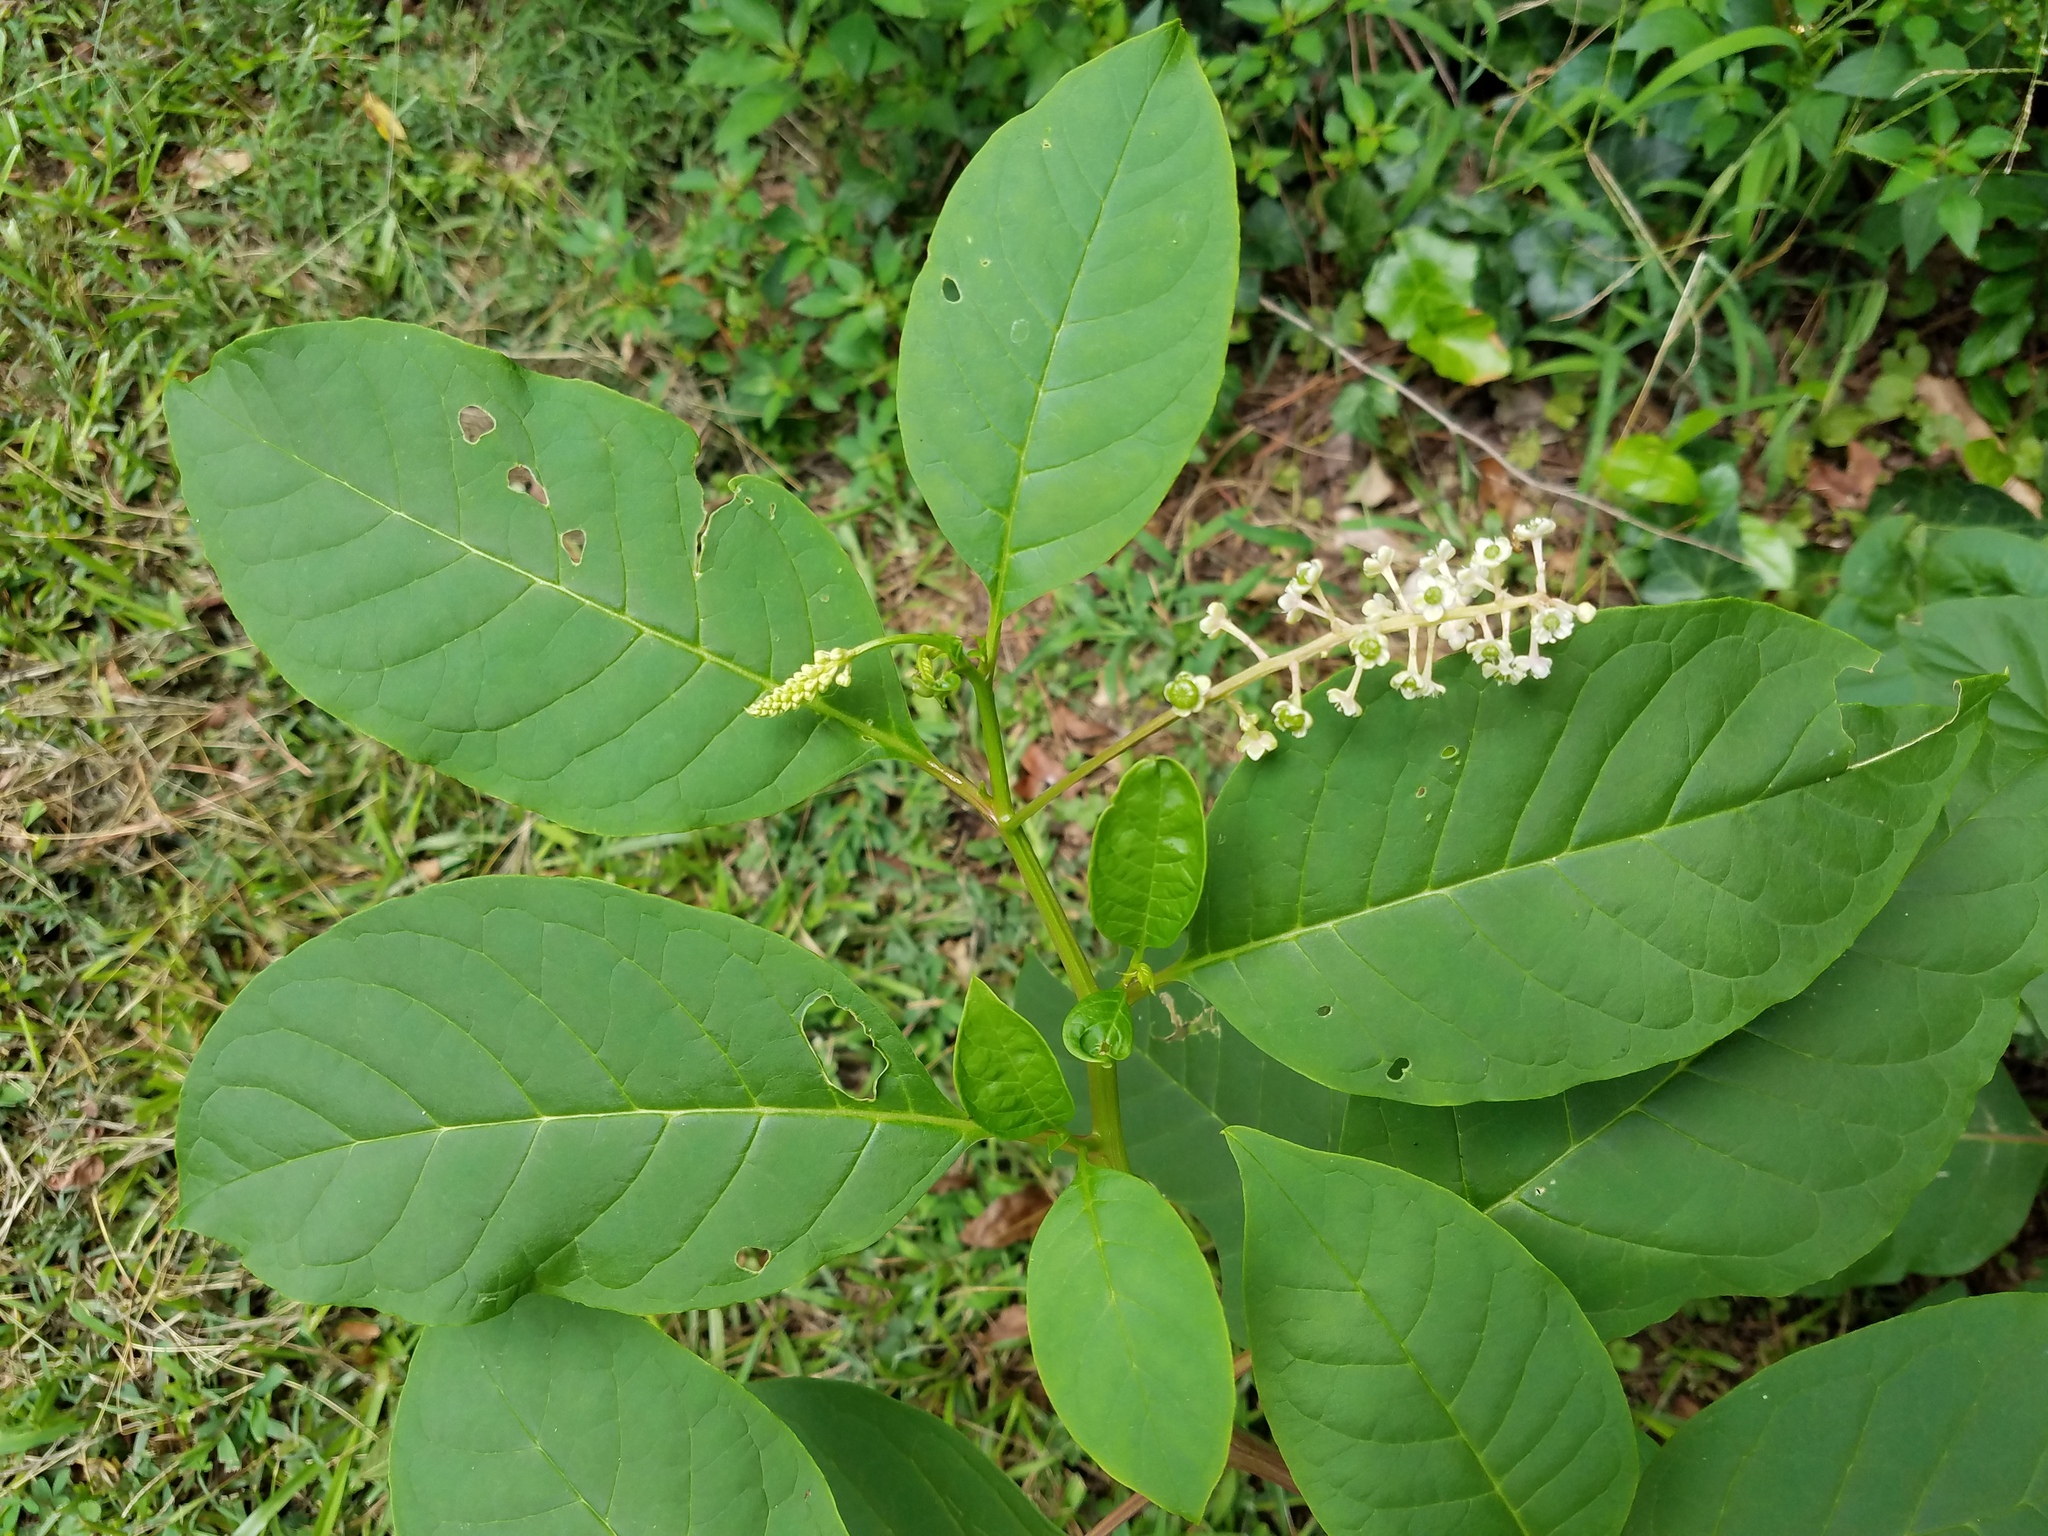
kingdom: Plantae
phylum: Tracheophyta
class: Magnoliopsida
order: Caryophyllales
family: Phytolaccaceae
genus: Phytolacca
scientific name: Phytolacca americana
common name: American pokeweed
